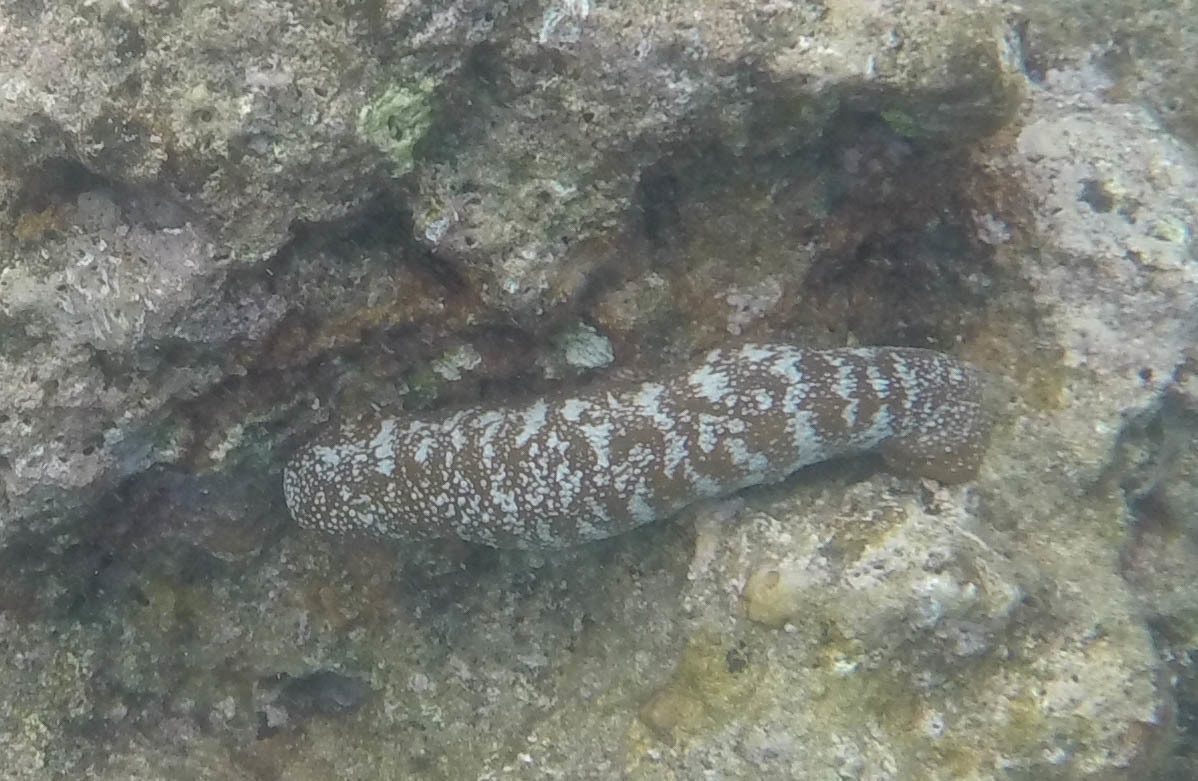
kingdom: Animalia
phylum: Echinodermata
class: Holothuroidea
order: Holothuriida
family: Holothuriidae
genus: Actinopyga
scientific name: Actinopyga varians
